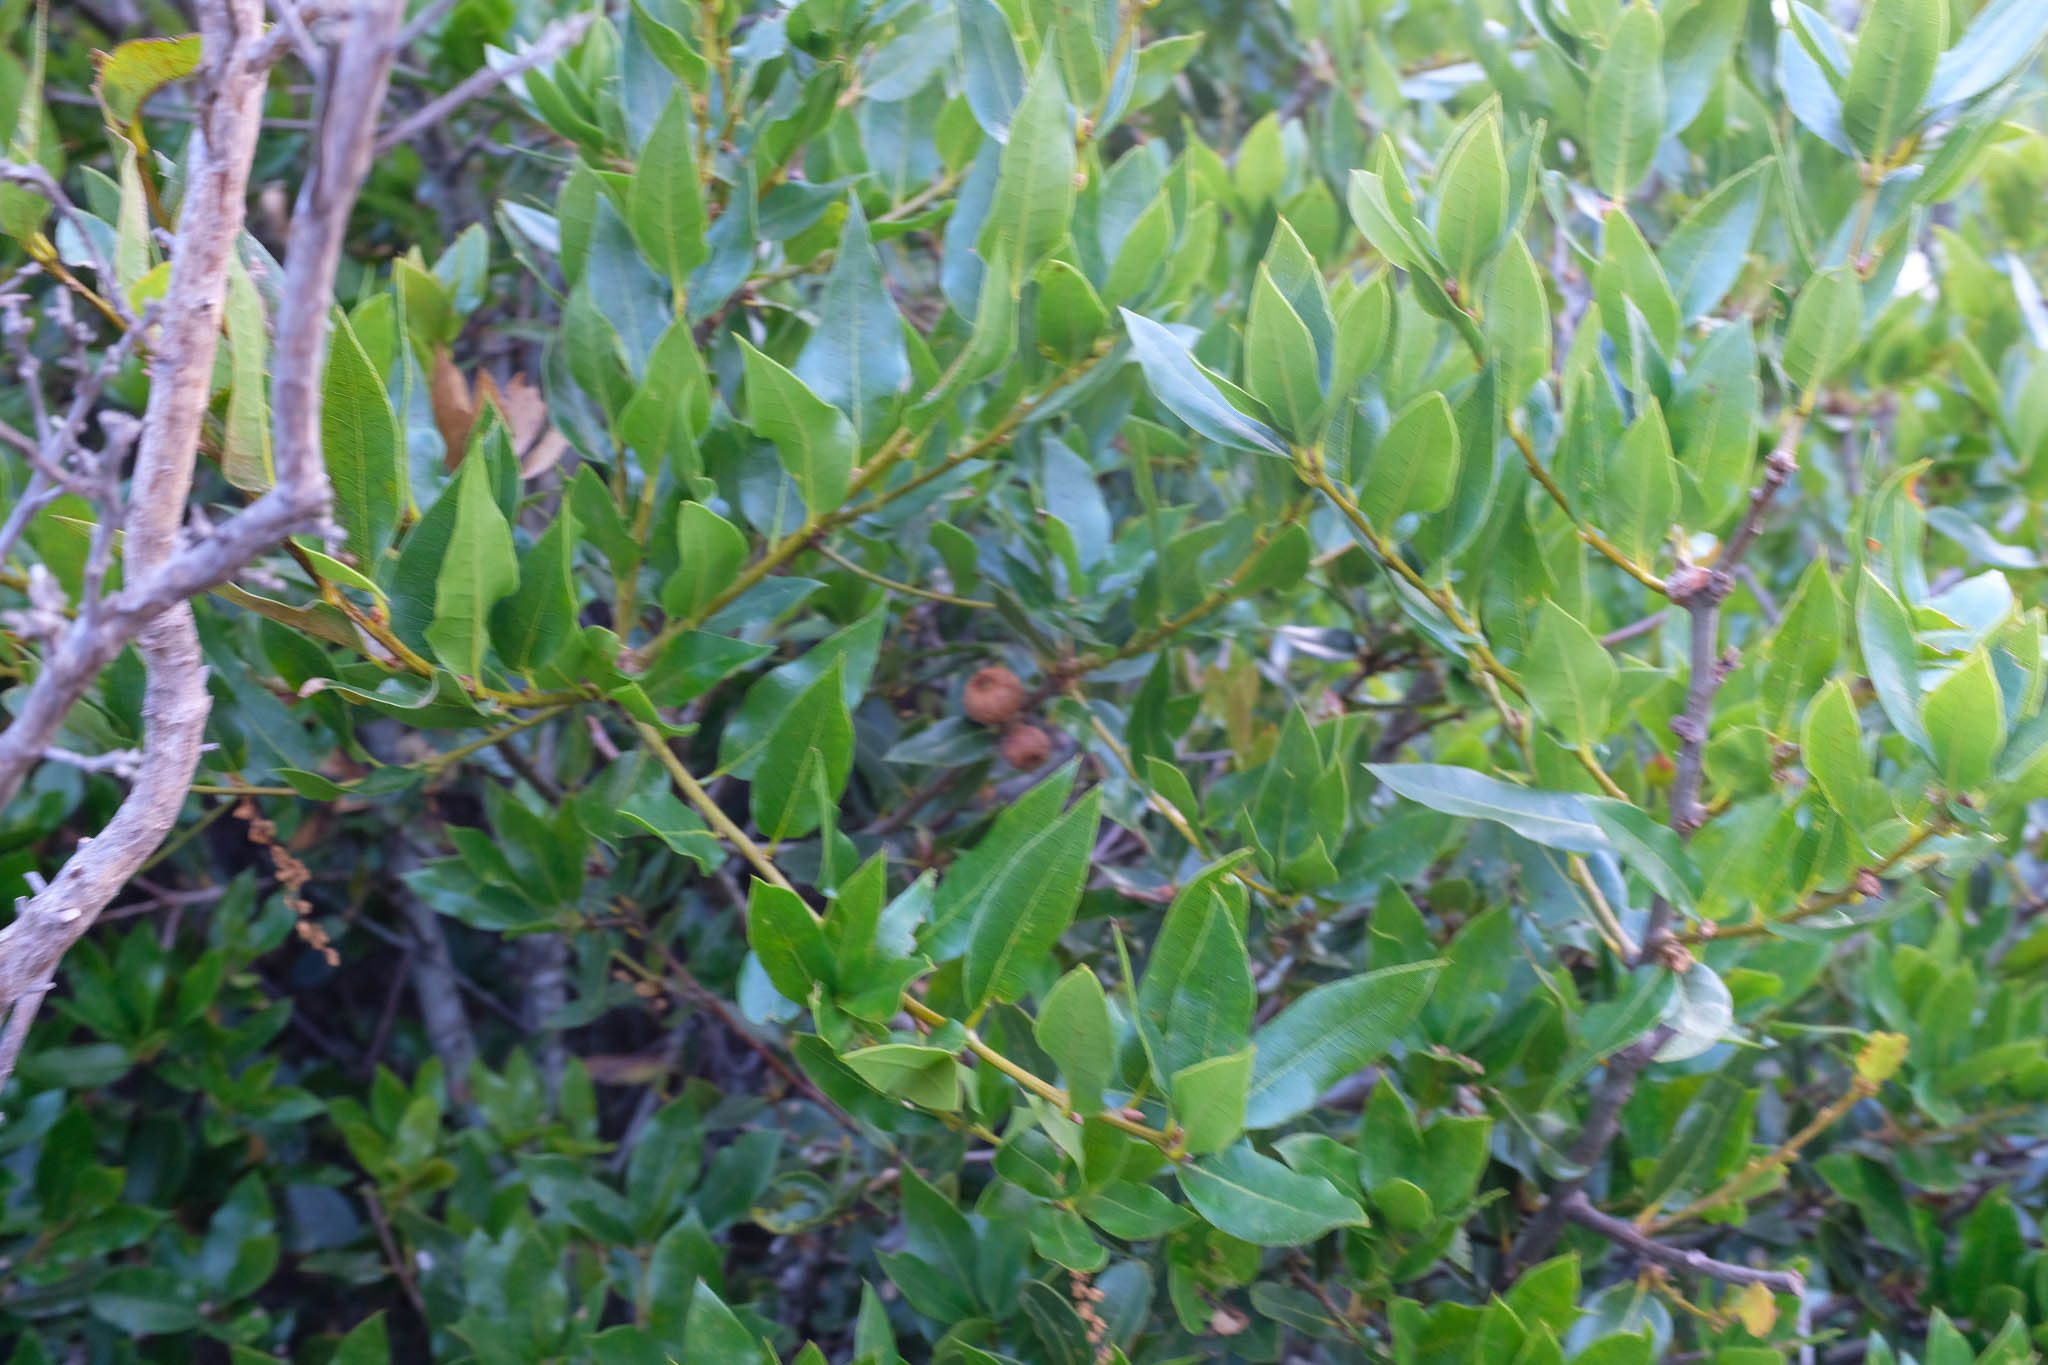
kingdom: Plantae
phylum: Tracheophyta
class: Magnoliopsida
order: Fagales
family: Fagaceae
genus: Quercus
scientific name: Quercus parvula
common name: Santa cruz island oak
